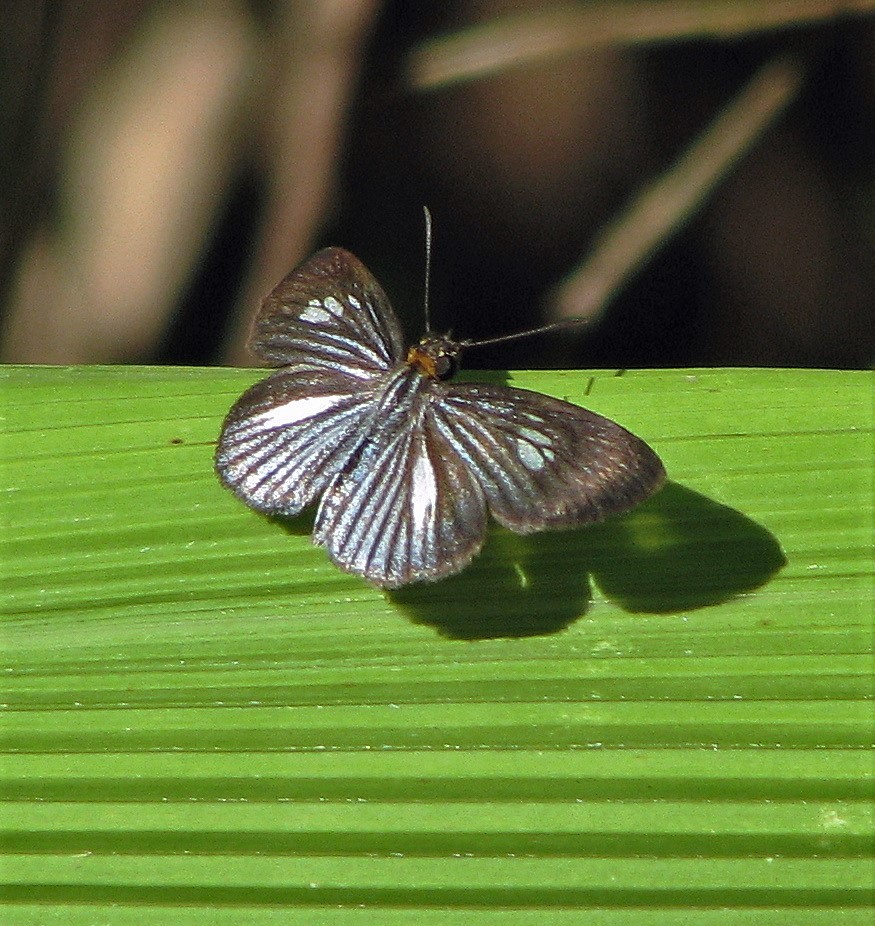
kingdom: Animalia
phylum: Arthropoda
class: Insecta
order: Lepidoptera
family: Hesperiidae
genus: Pythonides
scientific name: Pythonides lancea
